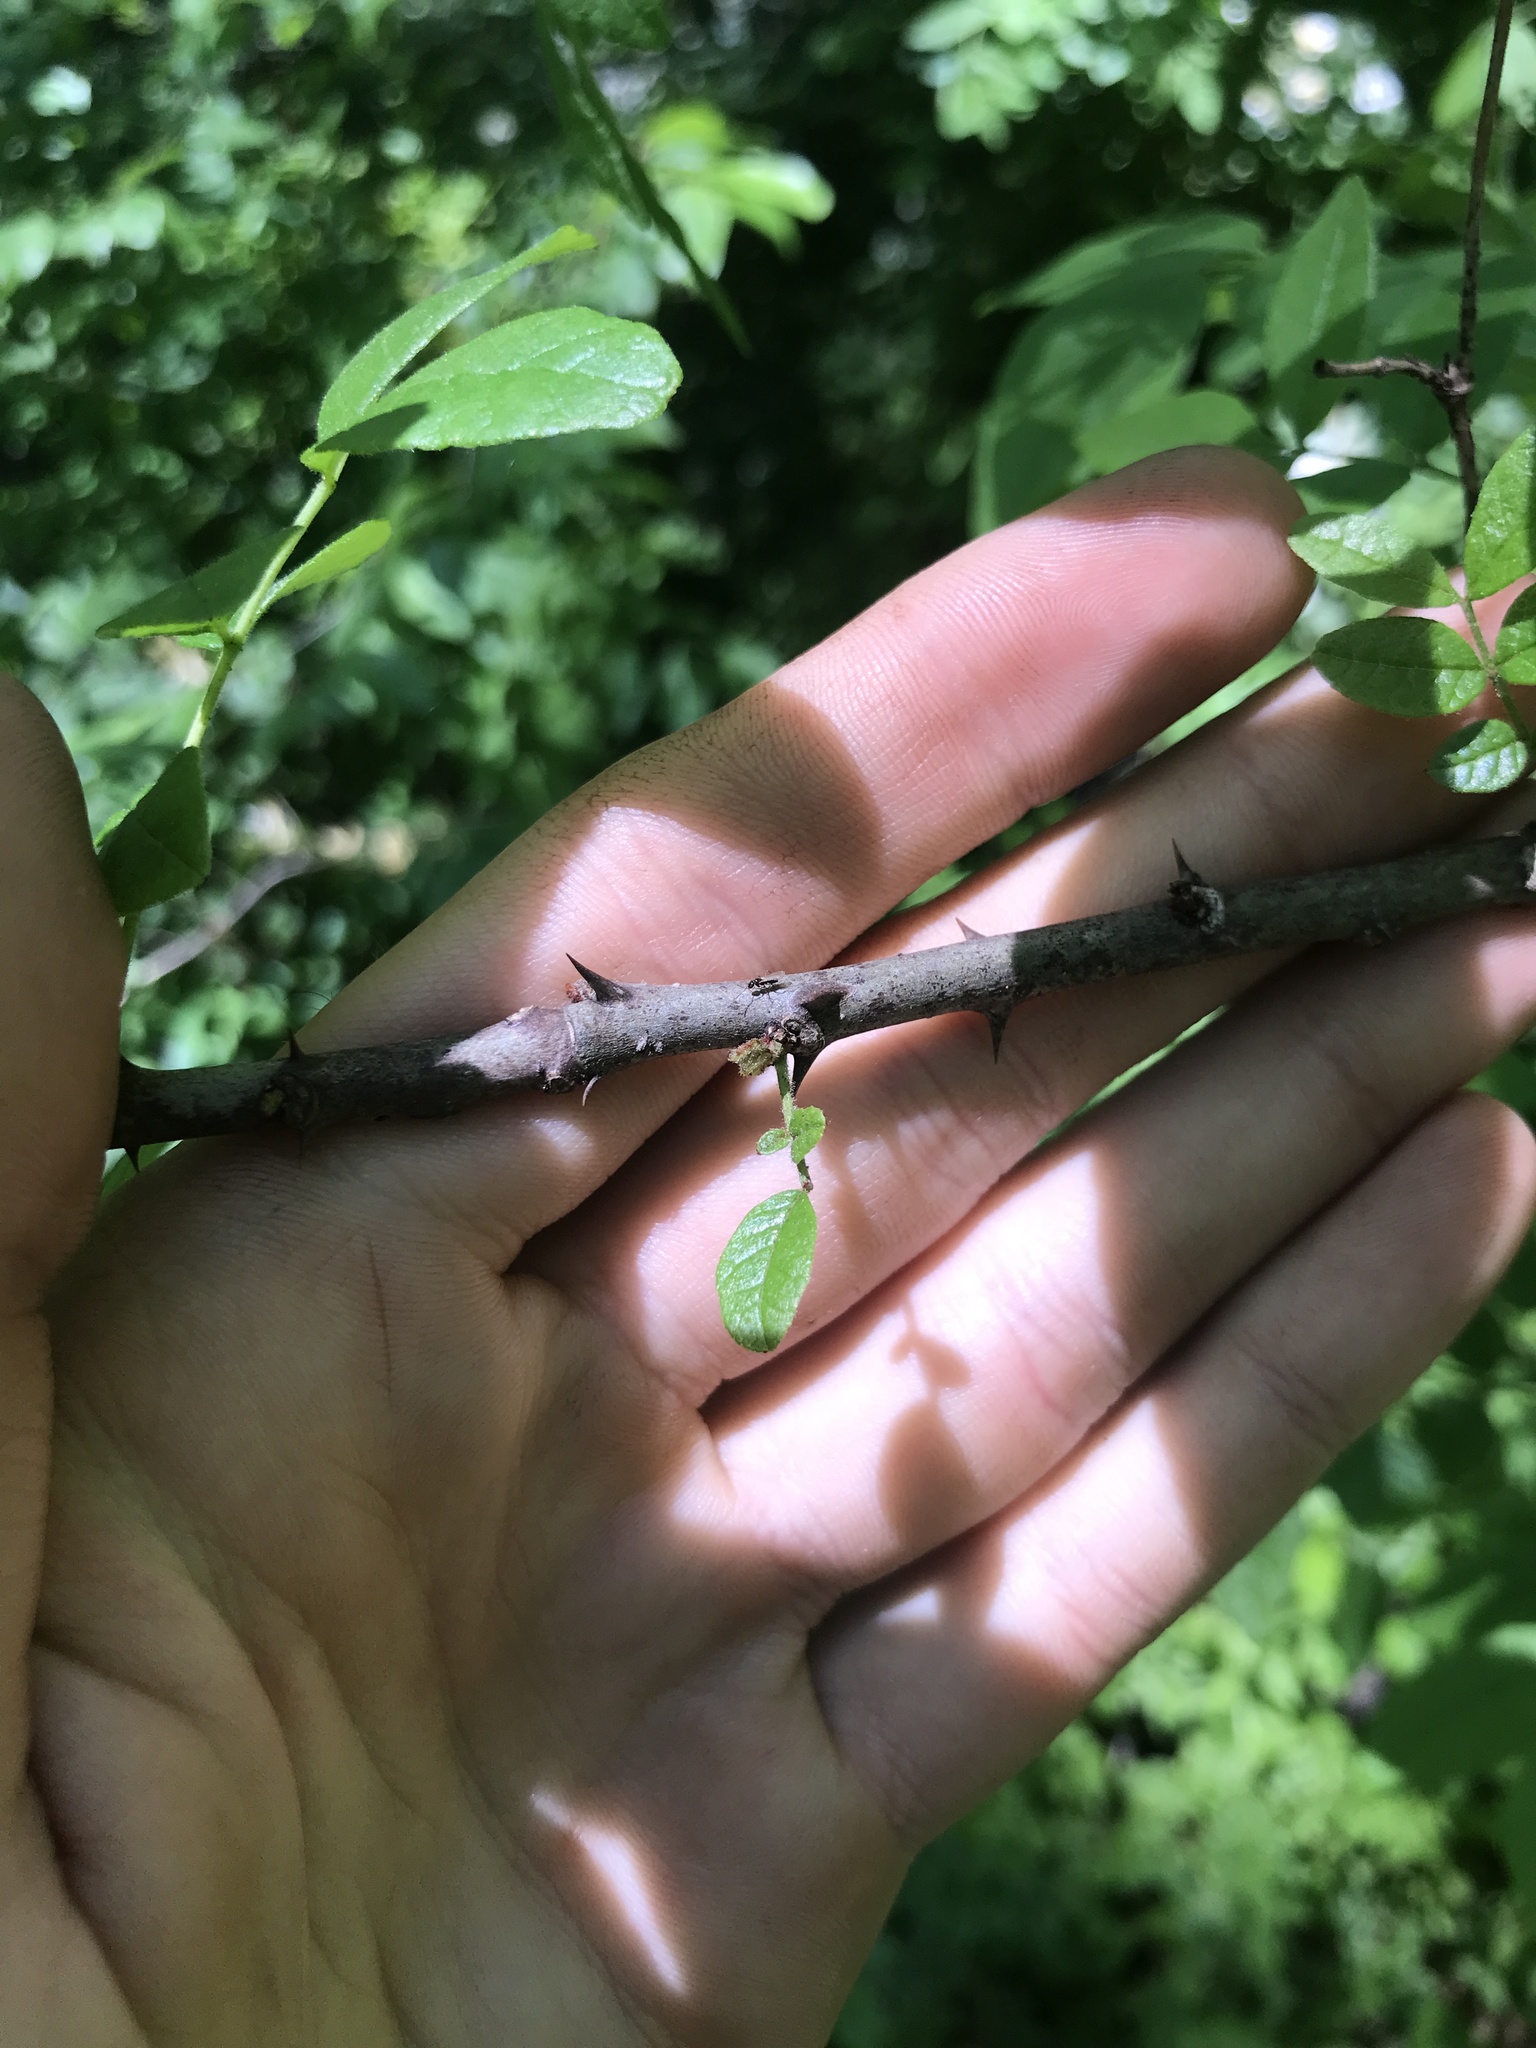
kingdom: Plantae
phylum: Tracheophyta
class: Magnoliopsida
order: Sapindales
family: Rutaceae
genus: Zanthoxylum
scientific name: Zanthoxylum americanum
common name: Northern prickly-ash
